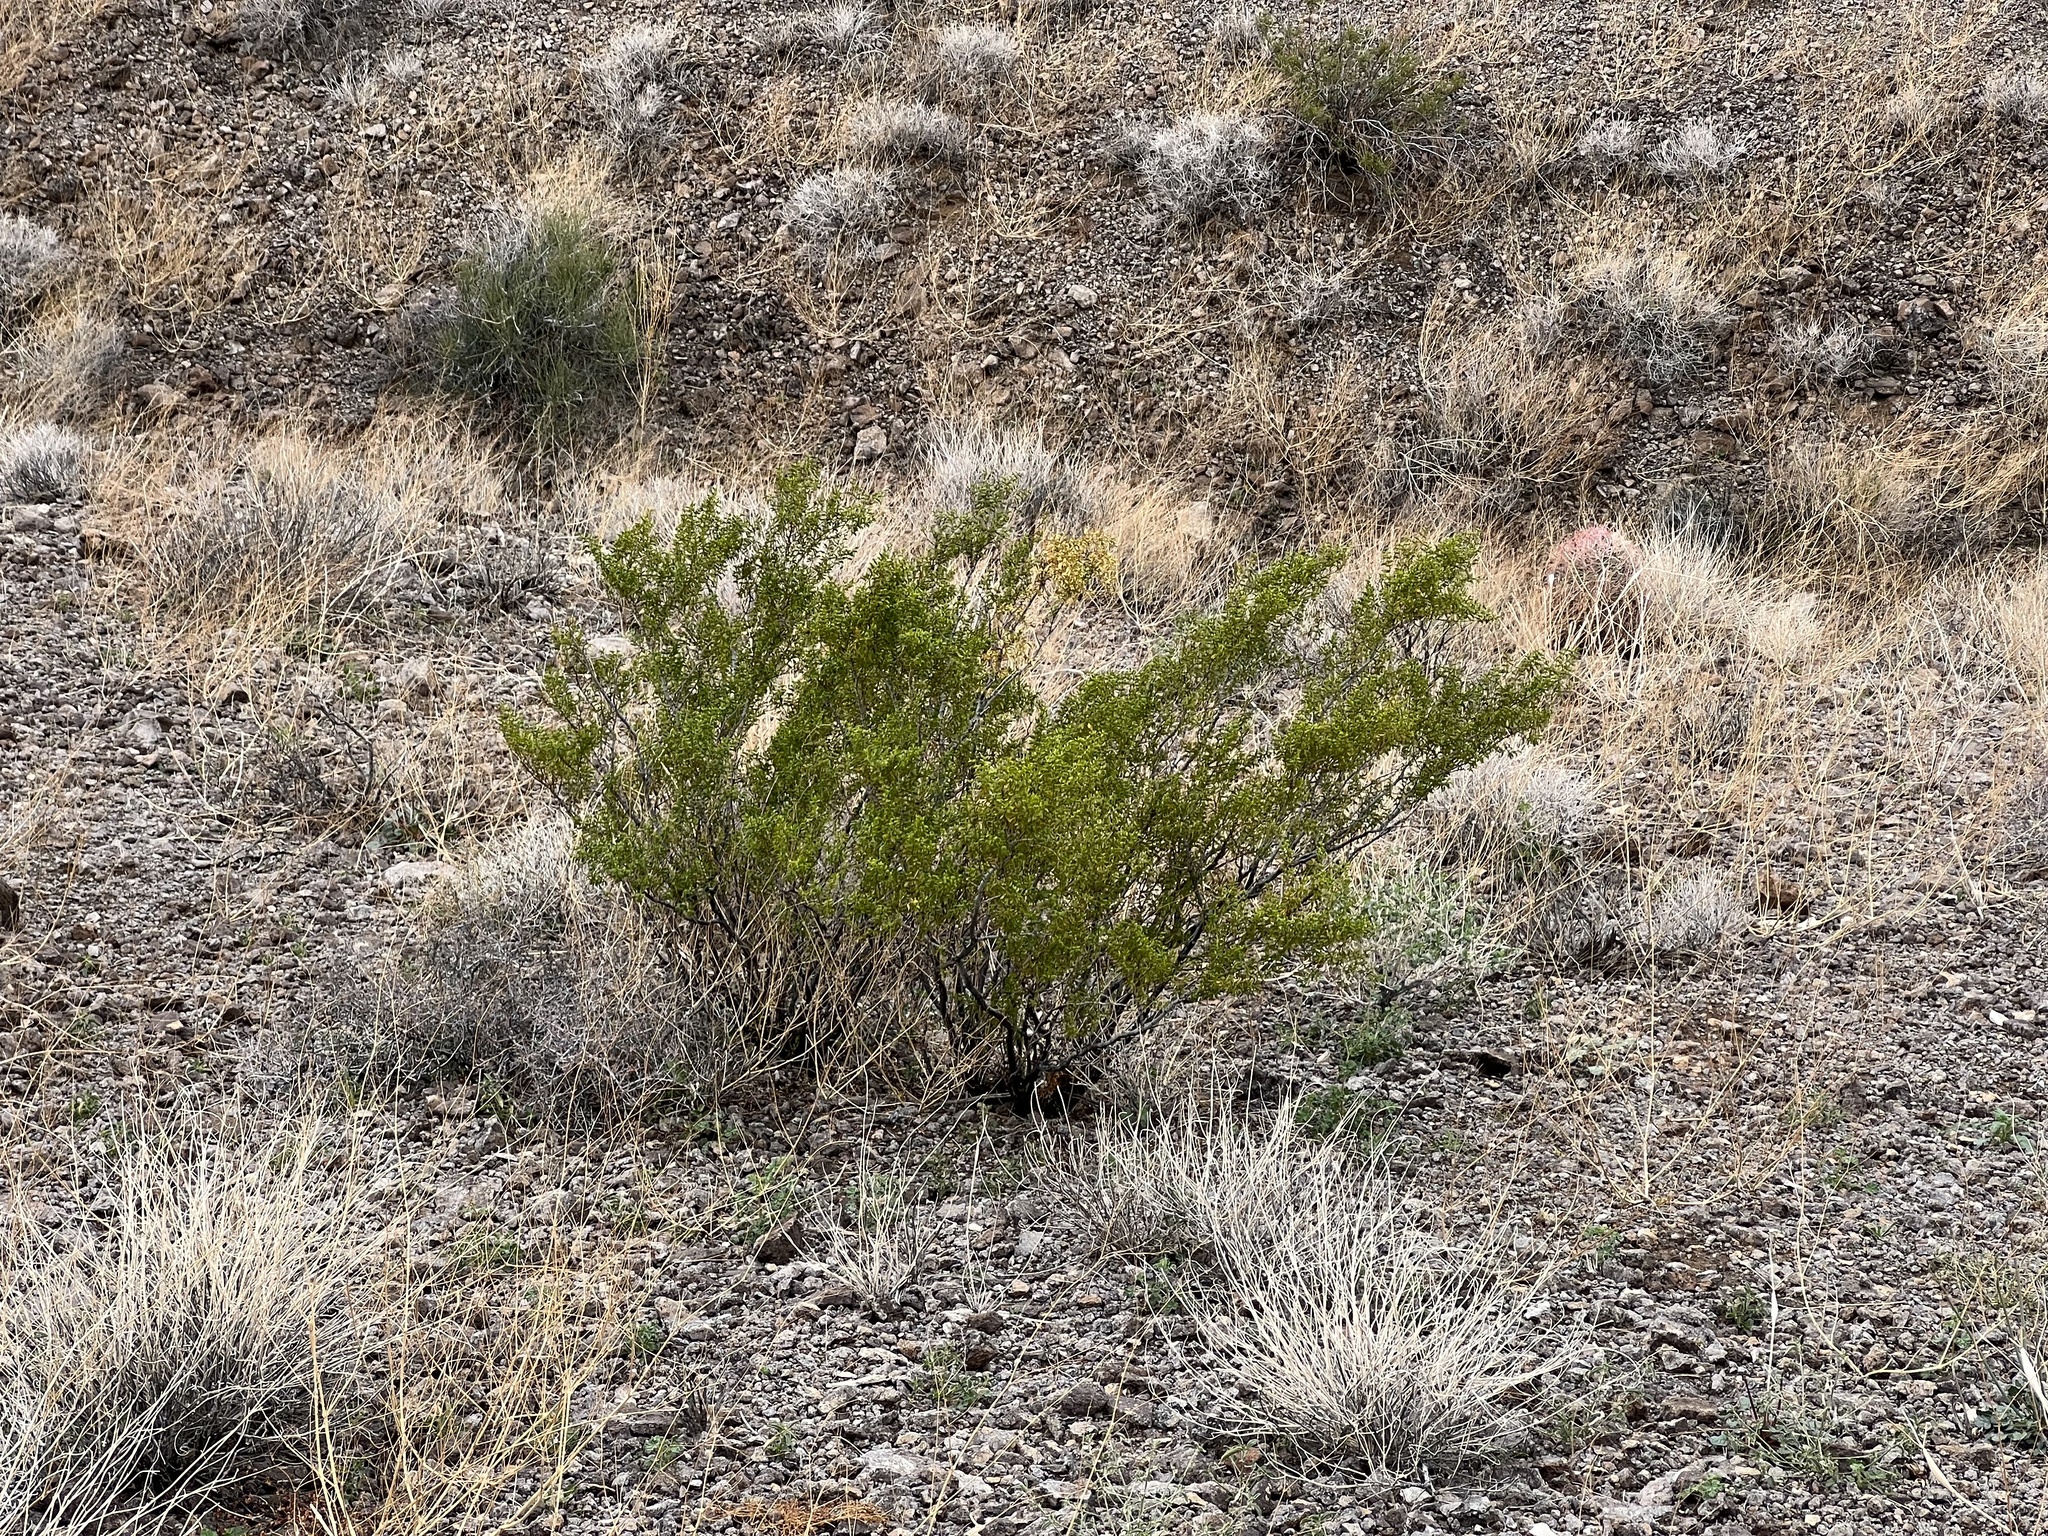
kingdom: Plantae
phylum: Tracheophyta
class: Magnoliopsida
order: Zygophyllales
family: Zygophyllaceae
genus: Larrea
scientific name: Larrea tridentata
